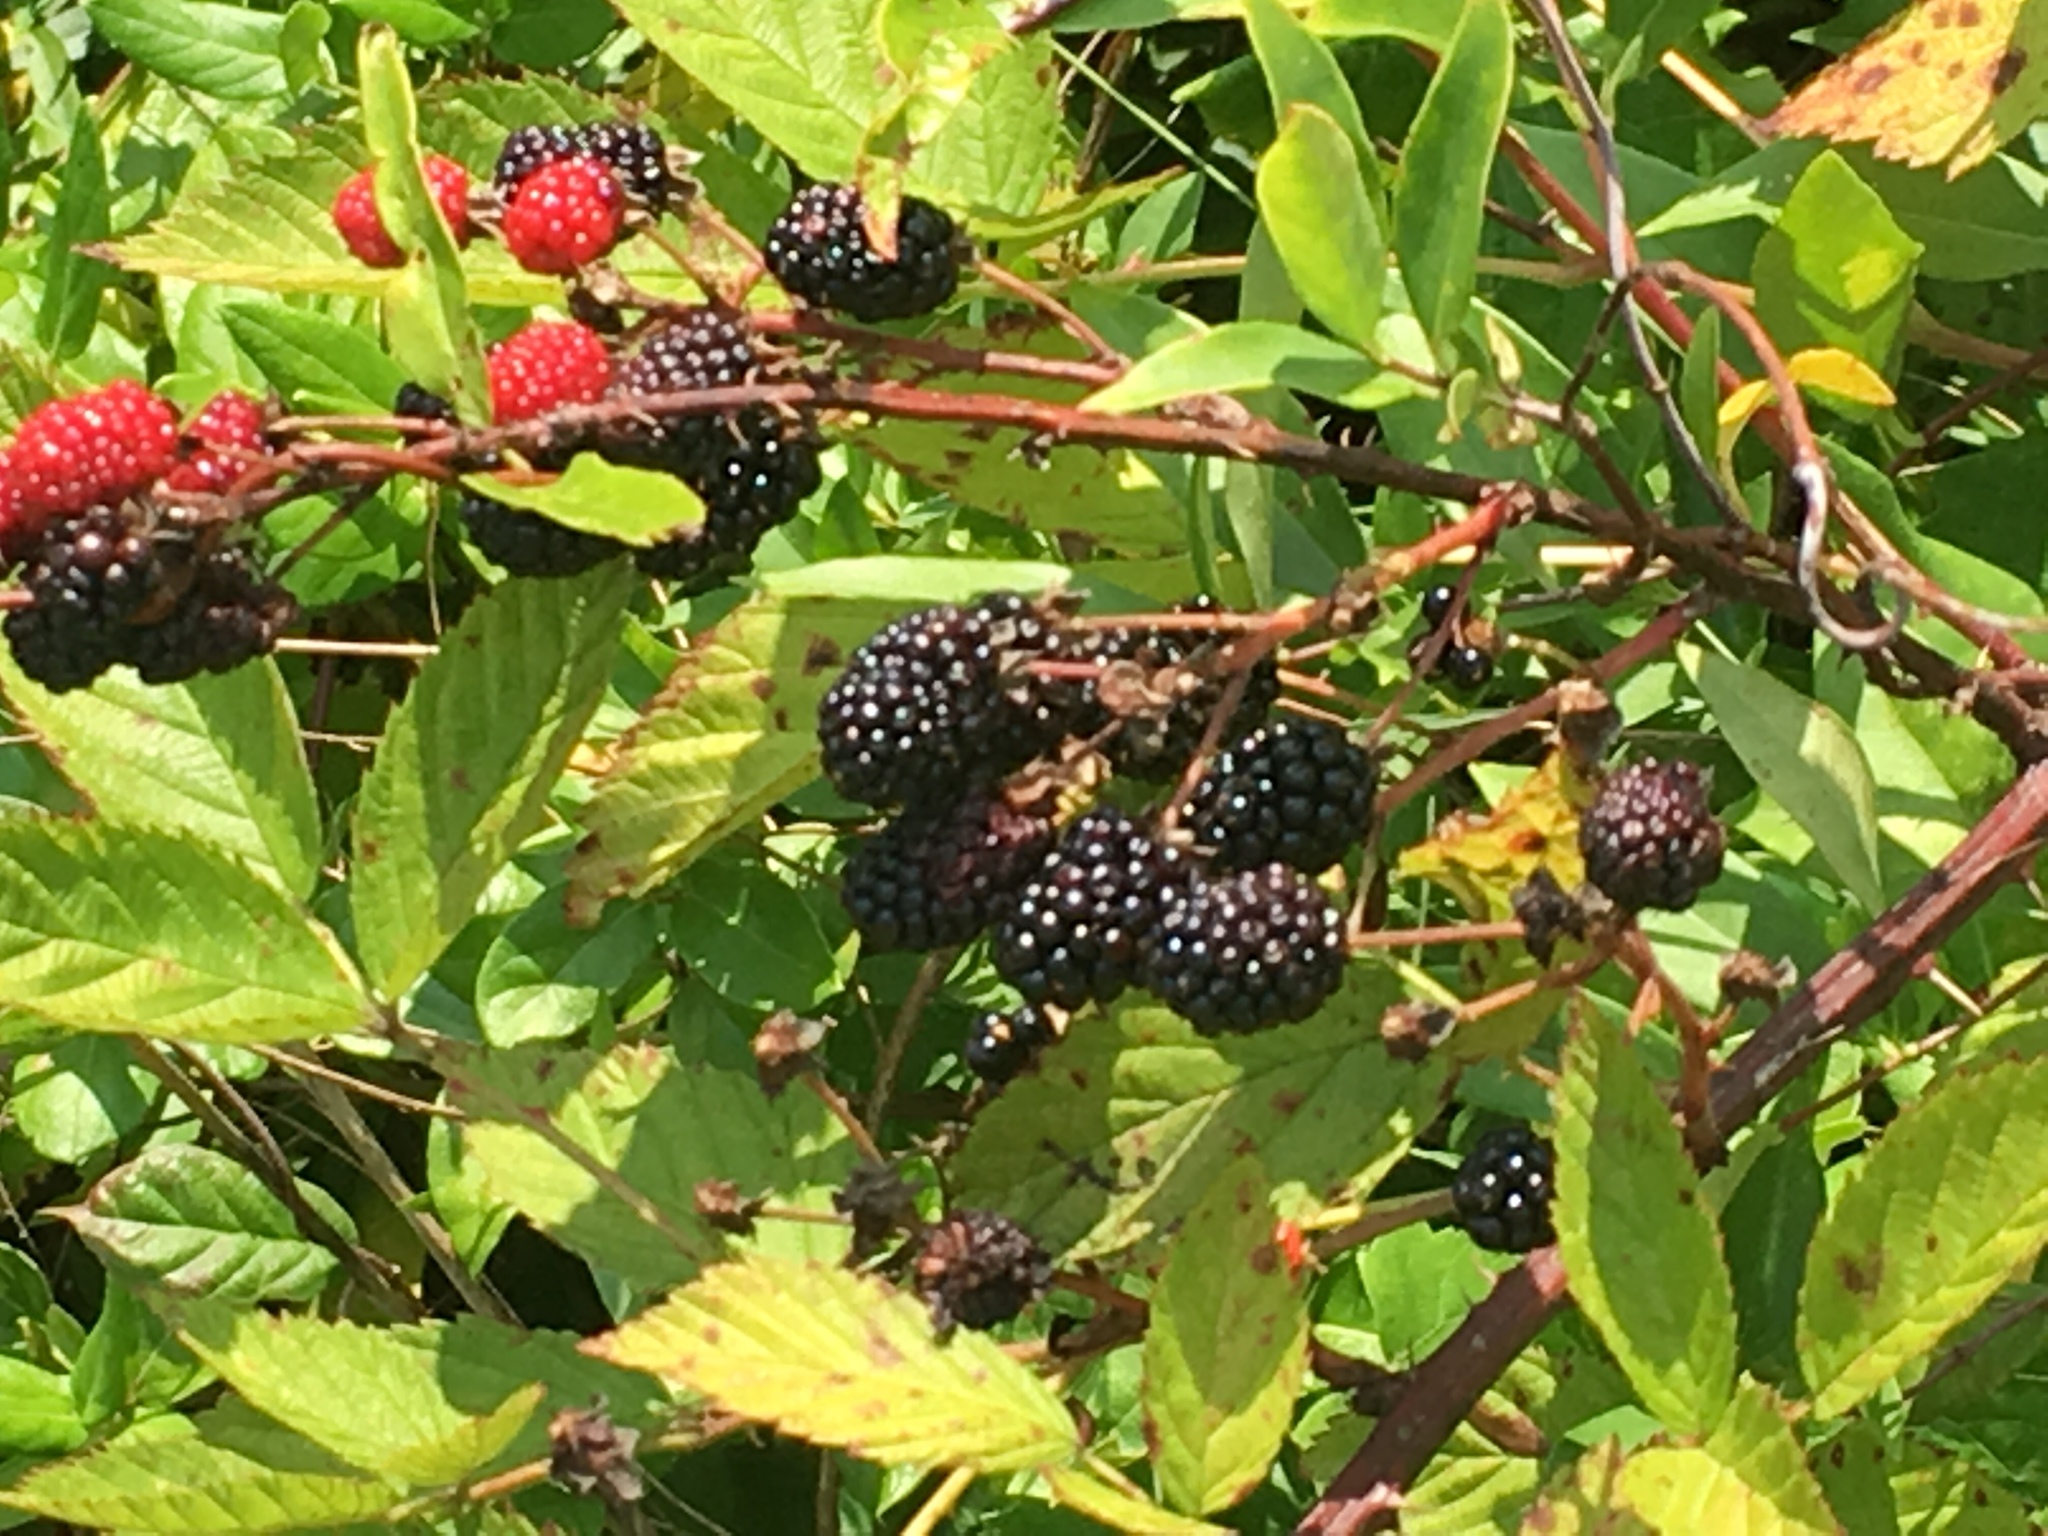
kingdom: Plantae
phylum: Tracheophyta
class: Magnoliopsida
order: Rosales
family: Rosaceae
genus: Rubus
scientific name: Rubus pensilvanicus
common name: Pennsylvania blackberry
